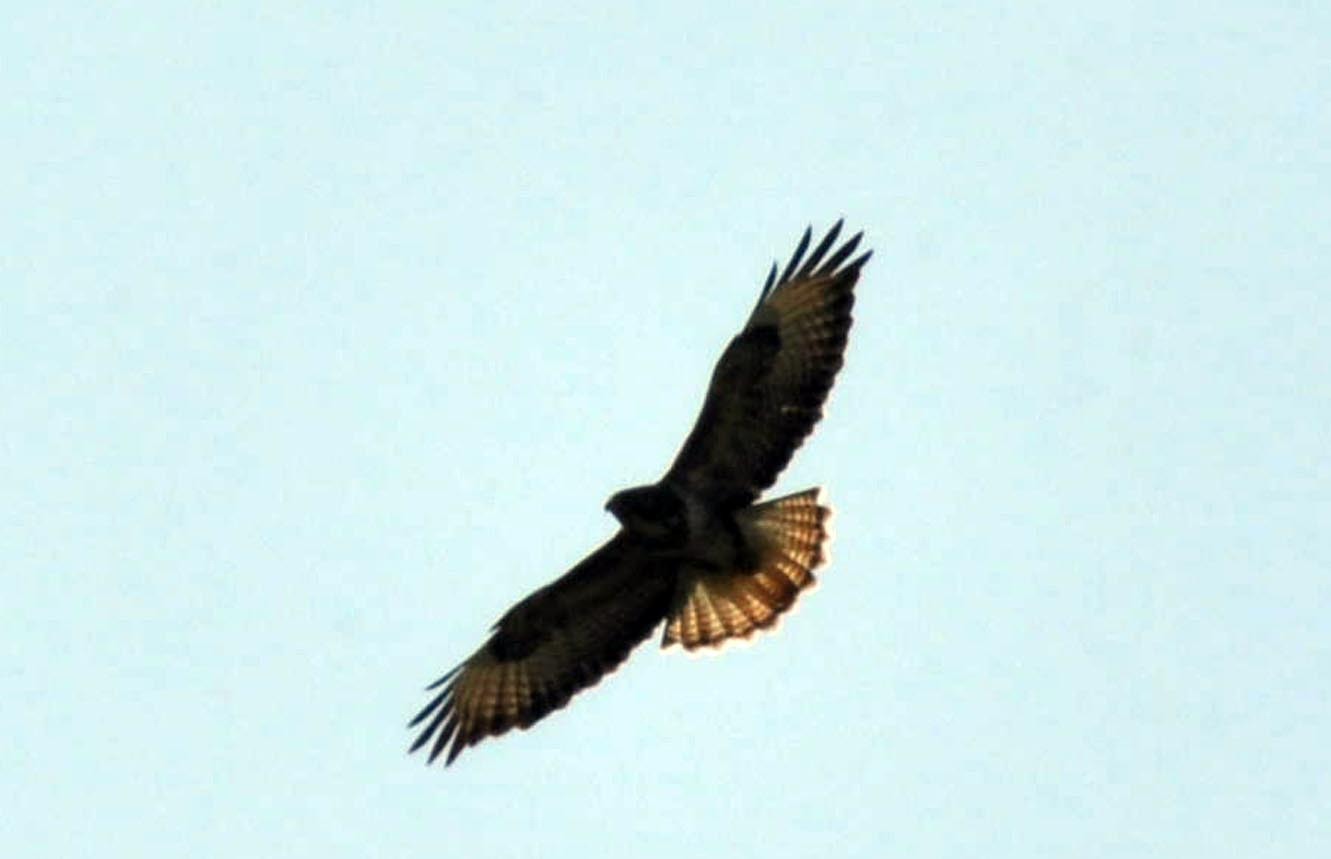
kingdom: Animalia
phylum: Chordata
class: Aves
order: Accipitriformes
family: Accipitridae
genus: Buteo
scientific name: Buteo buteo
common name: Common buzzard
